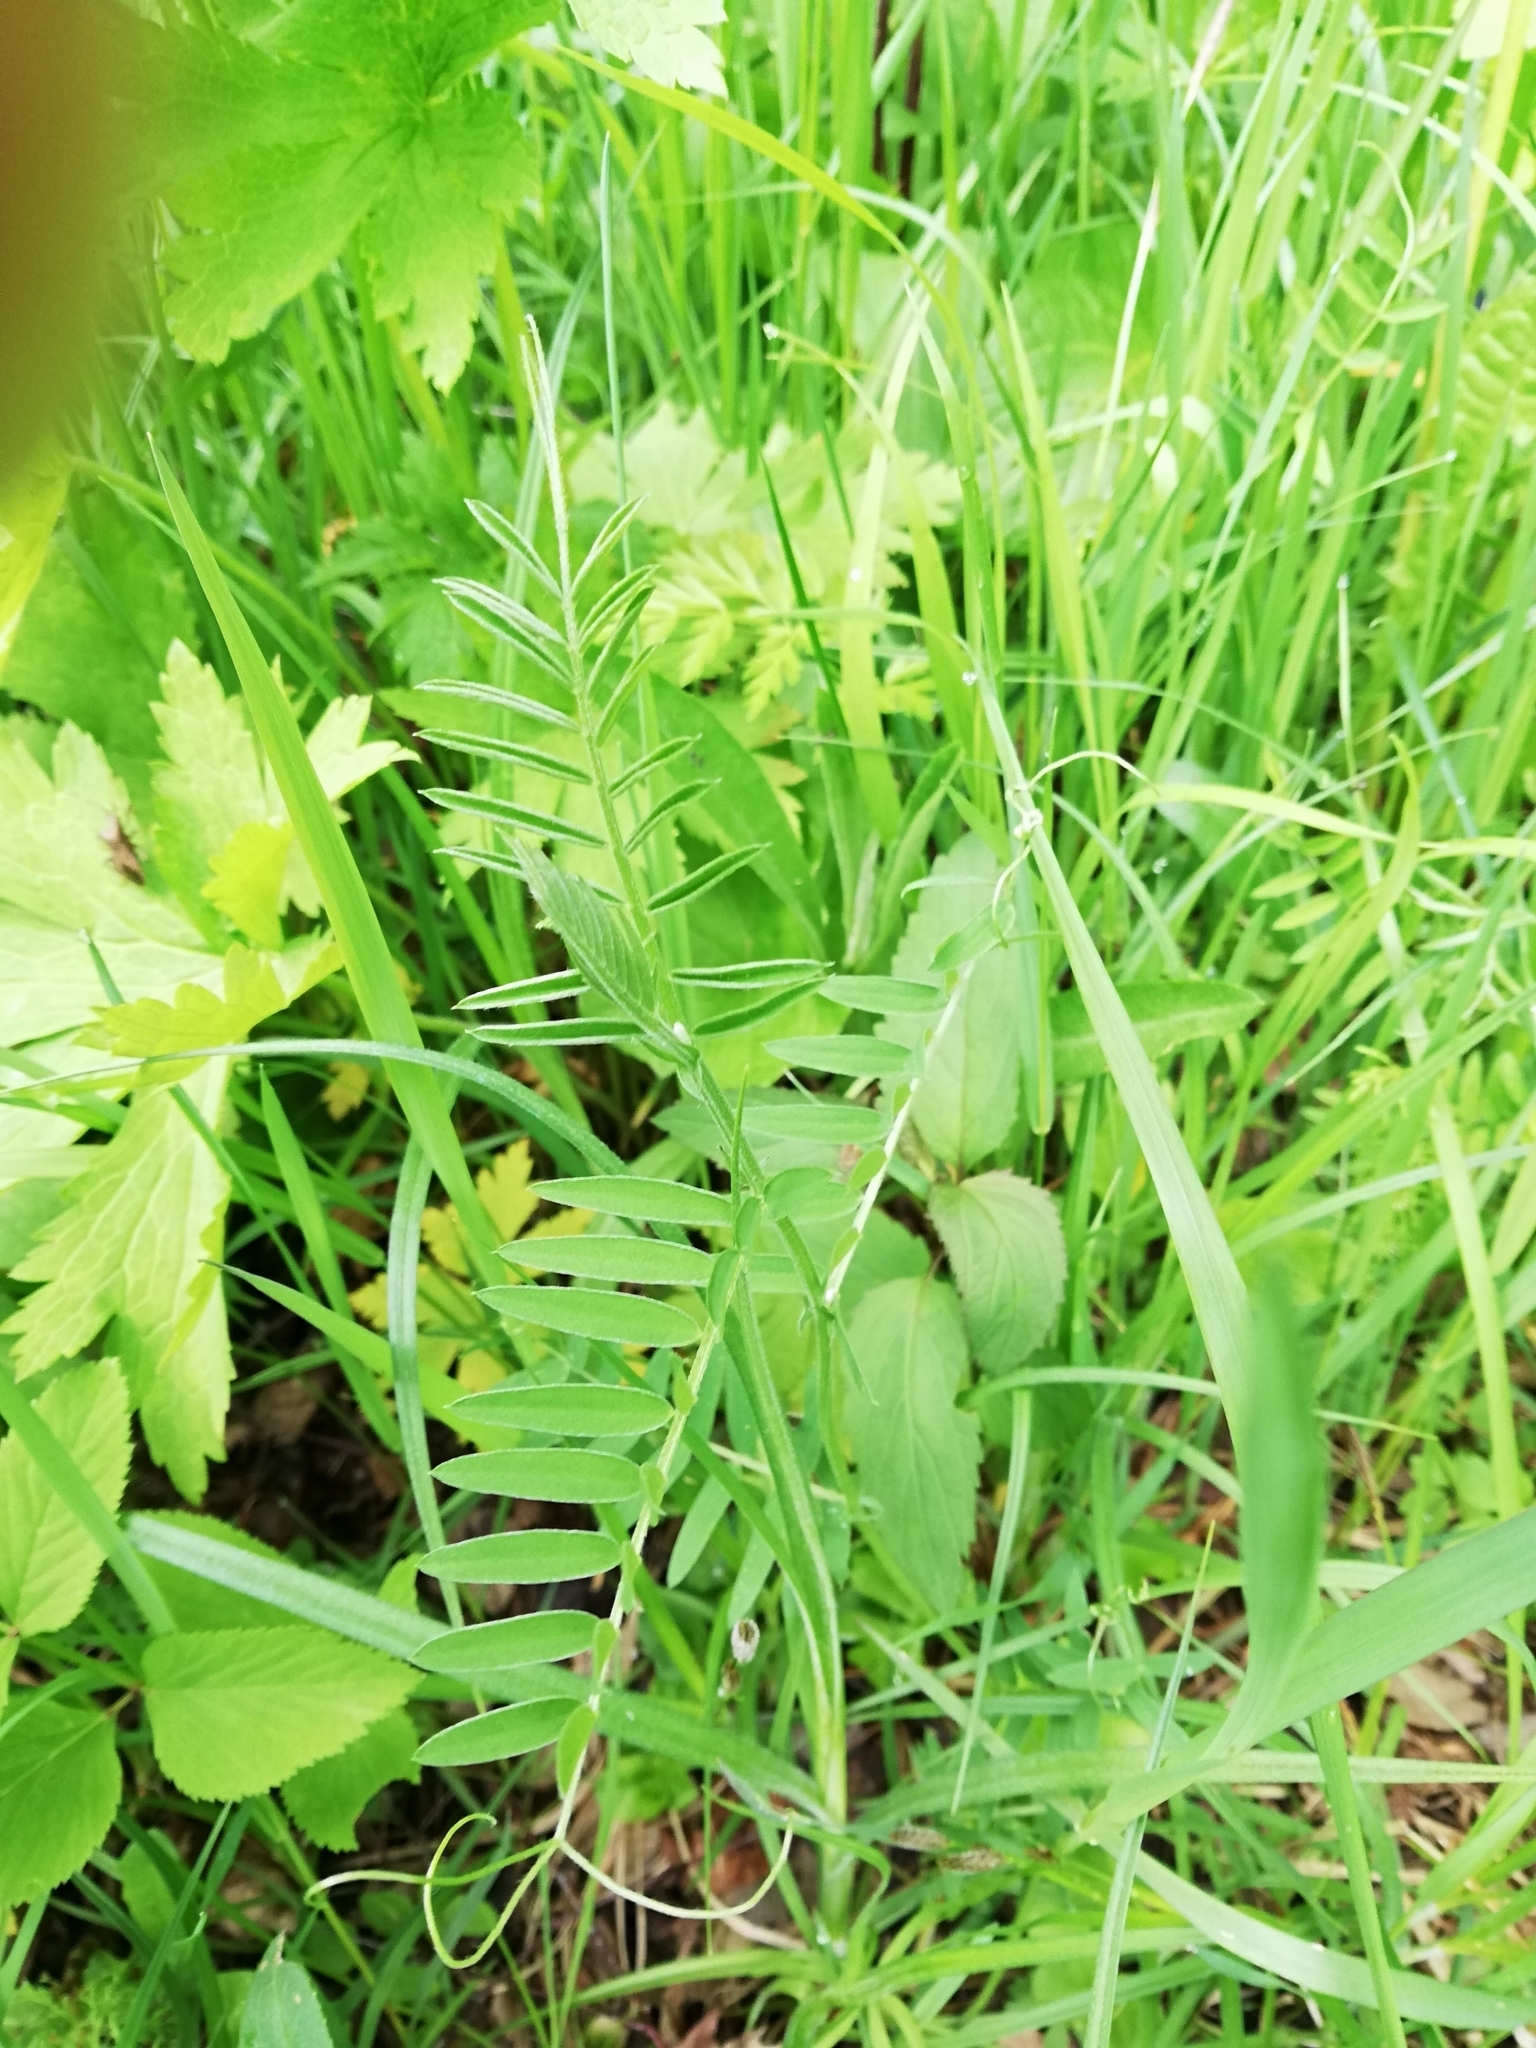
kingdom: Plantae
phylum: Tracheophyta
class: Magnoliopsida
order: Fabales
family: Fabaceae
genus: Vicia
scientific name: Vicia cracca
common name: Bird vetch
